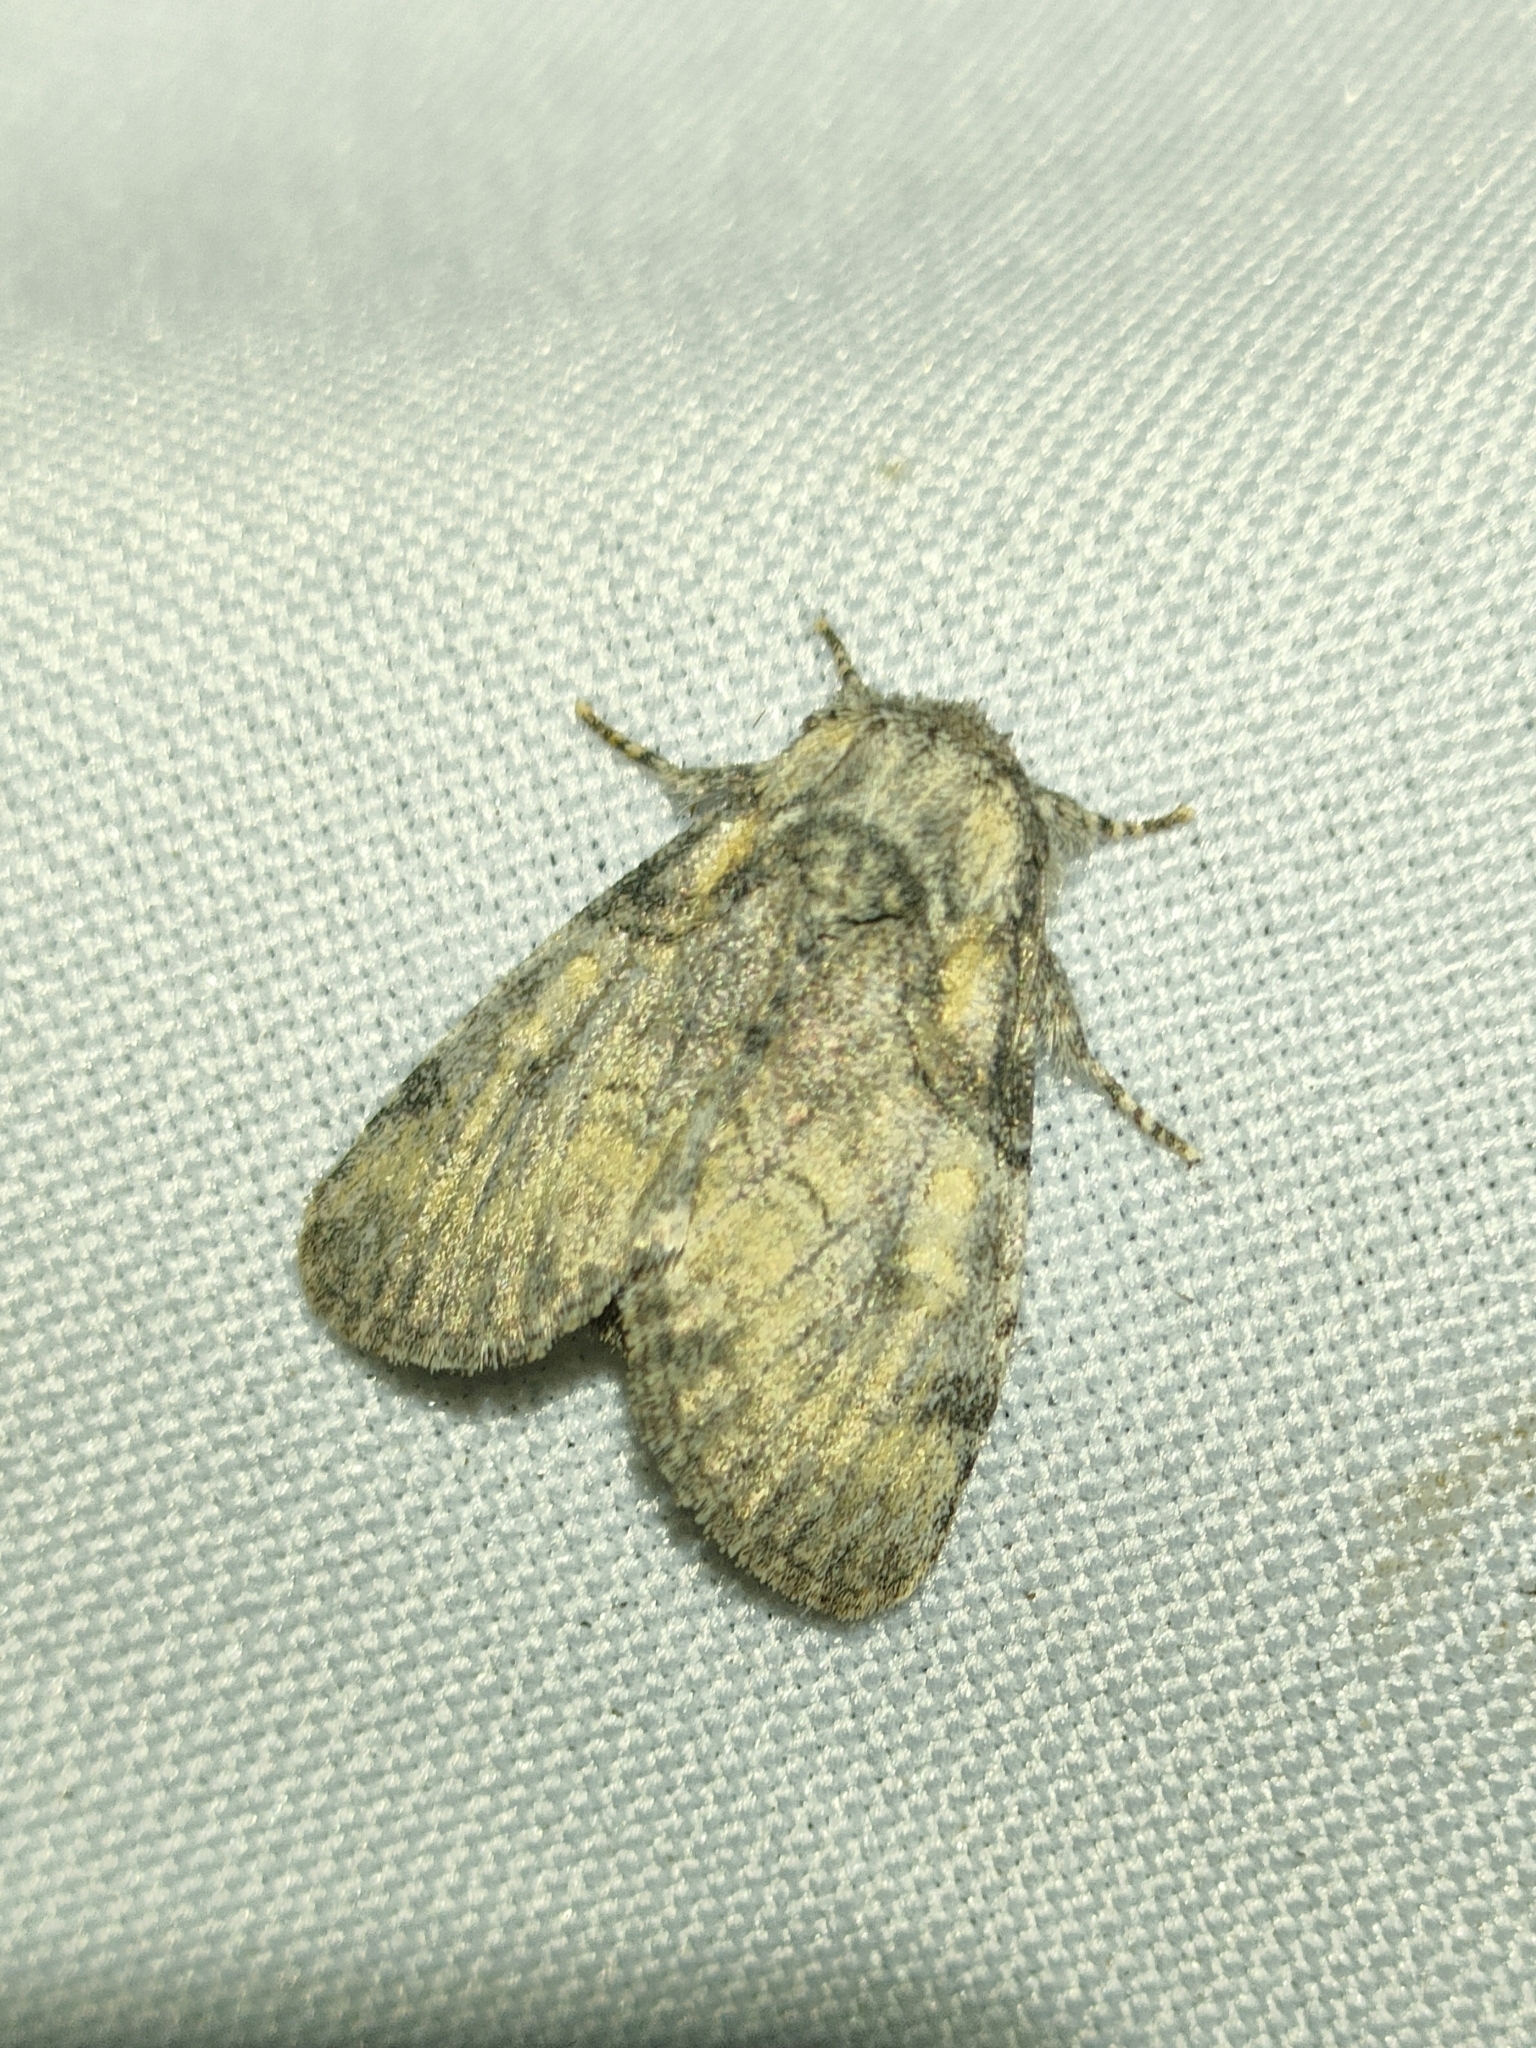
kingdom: Animalia
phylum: Arthropoda
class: Insecta
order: Lepidoptera
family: Noctuidae
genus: Raphia
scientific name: Raphia hybris
